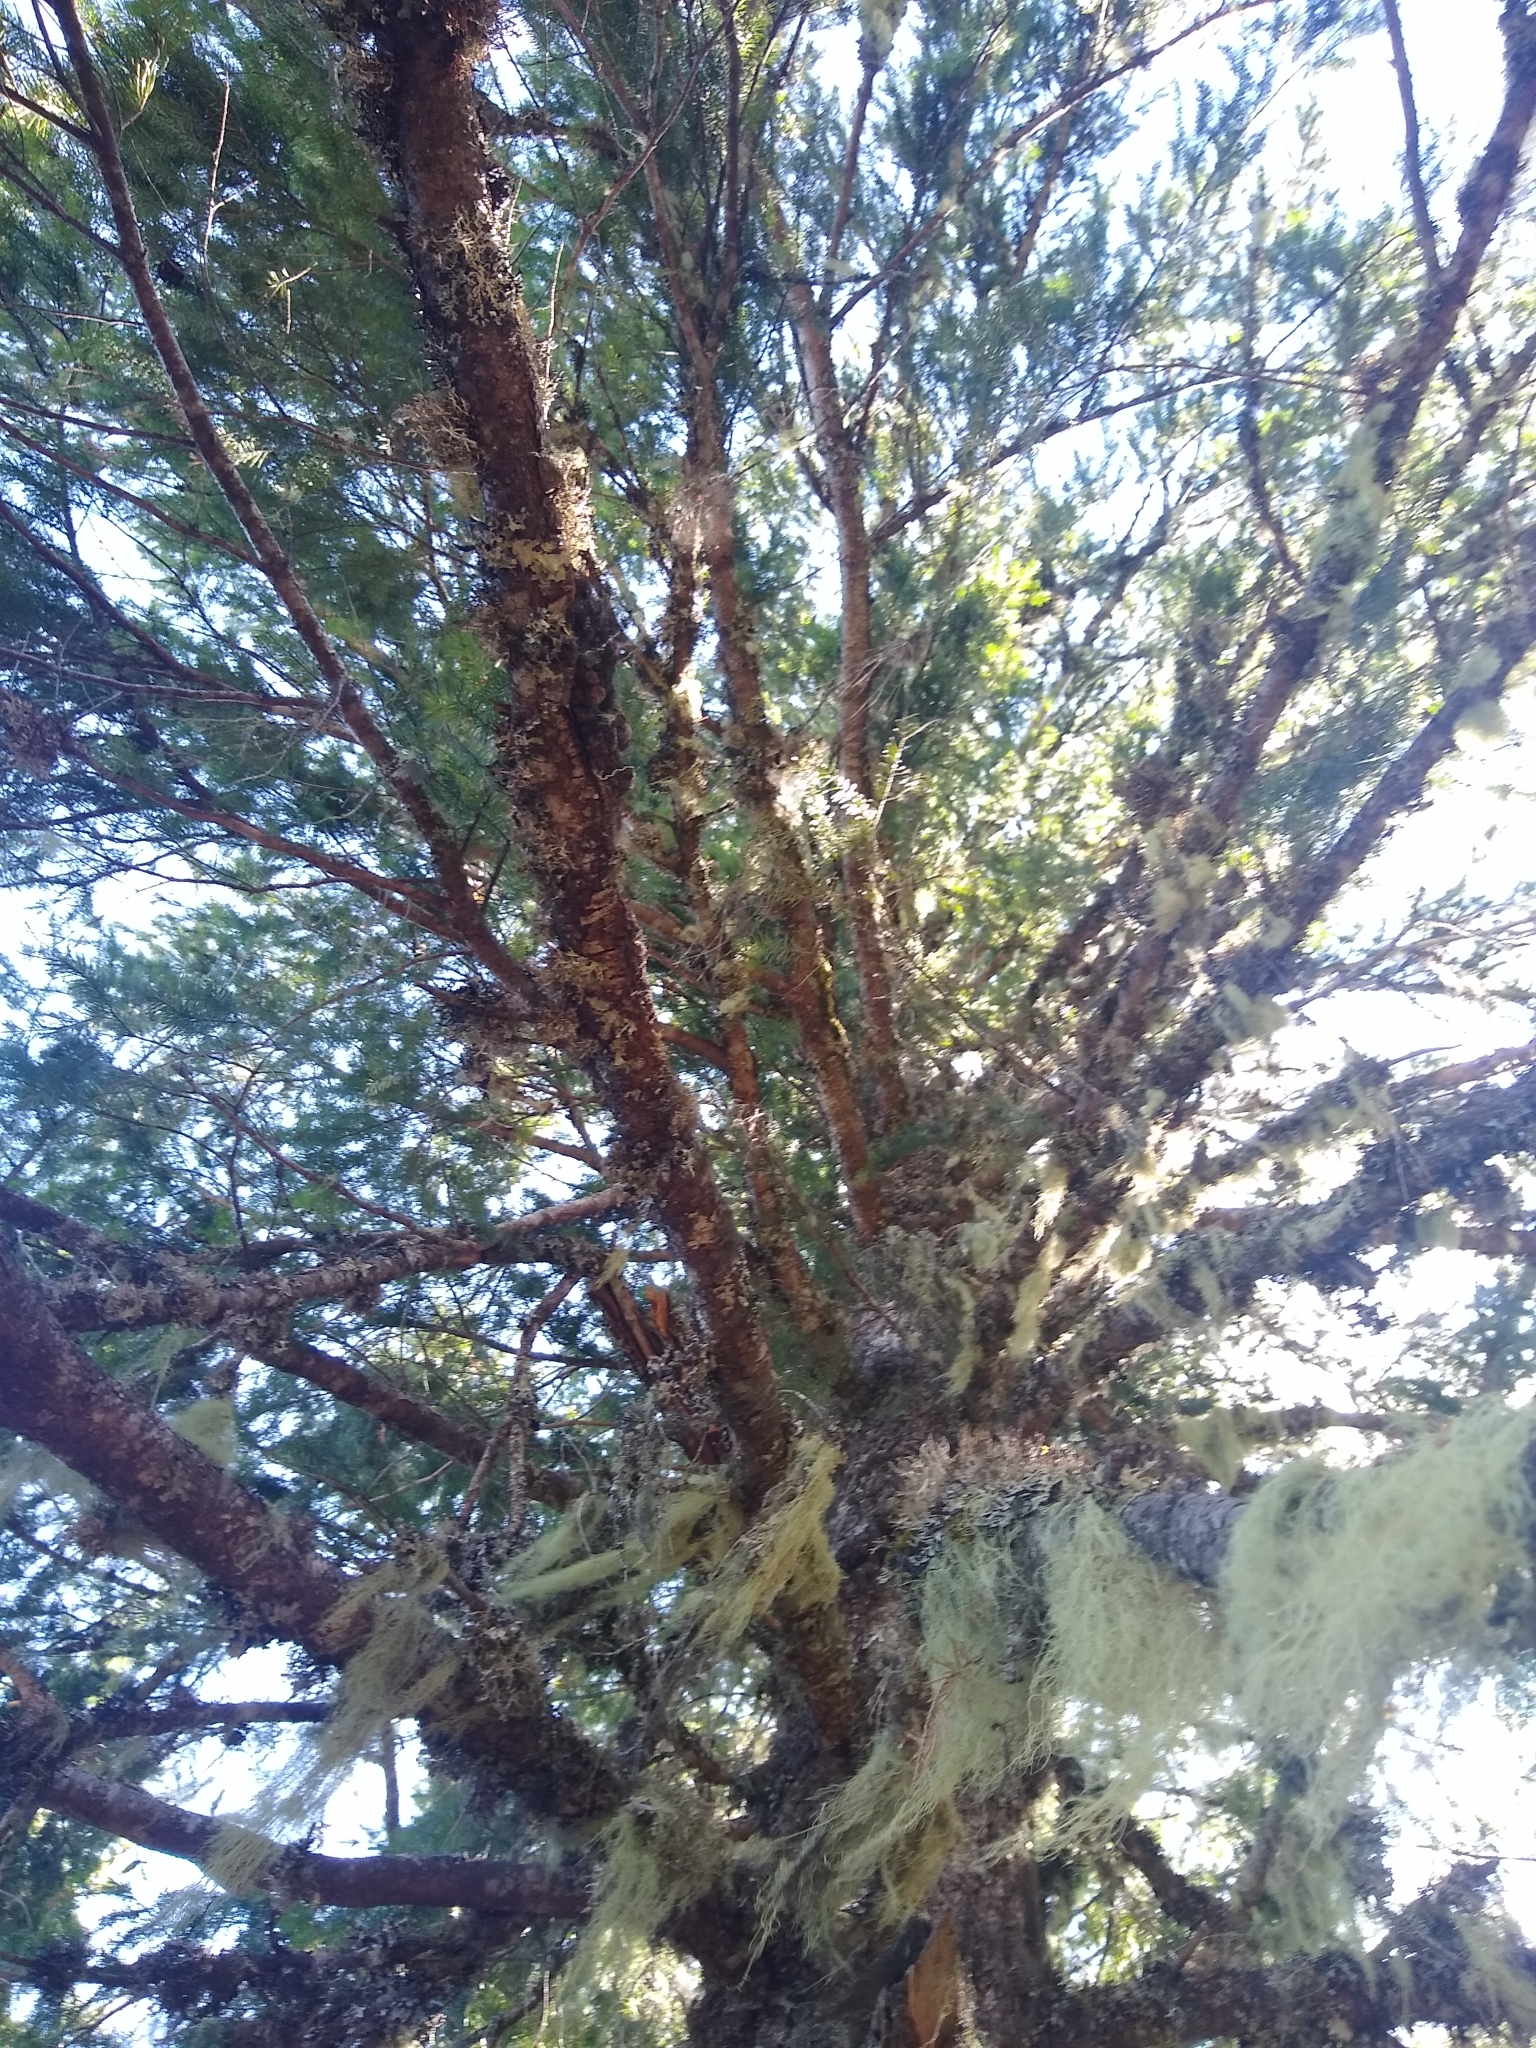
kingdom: Plantae
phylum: Tracheophyta
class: Pinopsida
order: Pinales
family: Pinaceae
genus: Pseudotsuga
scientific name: Pseudotsuga menziesii
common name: Douglas fir
